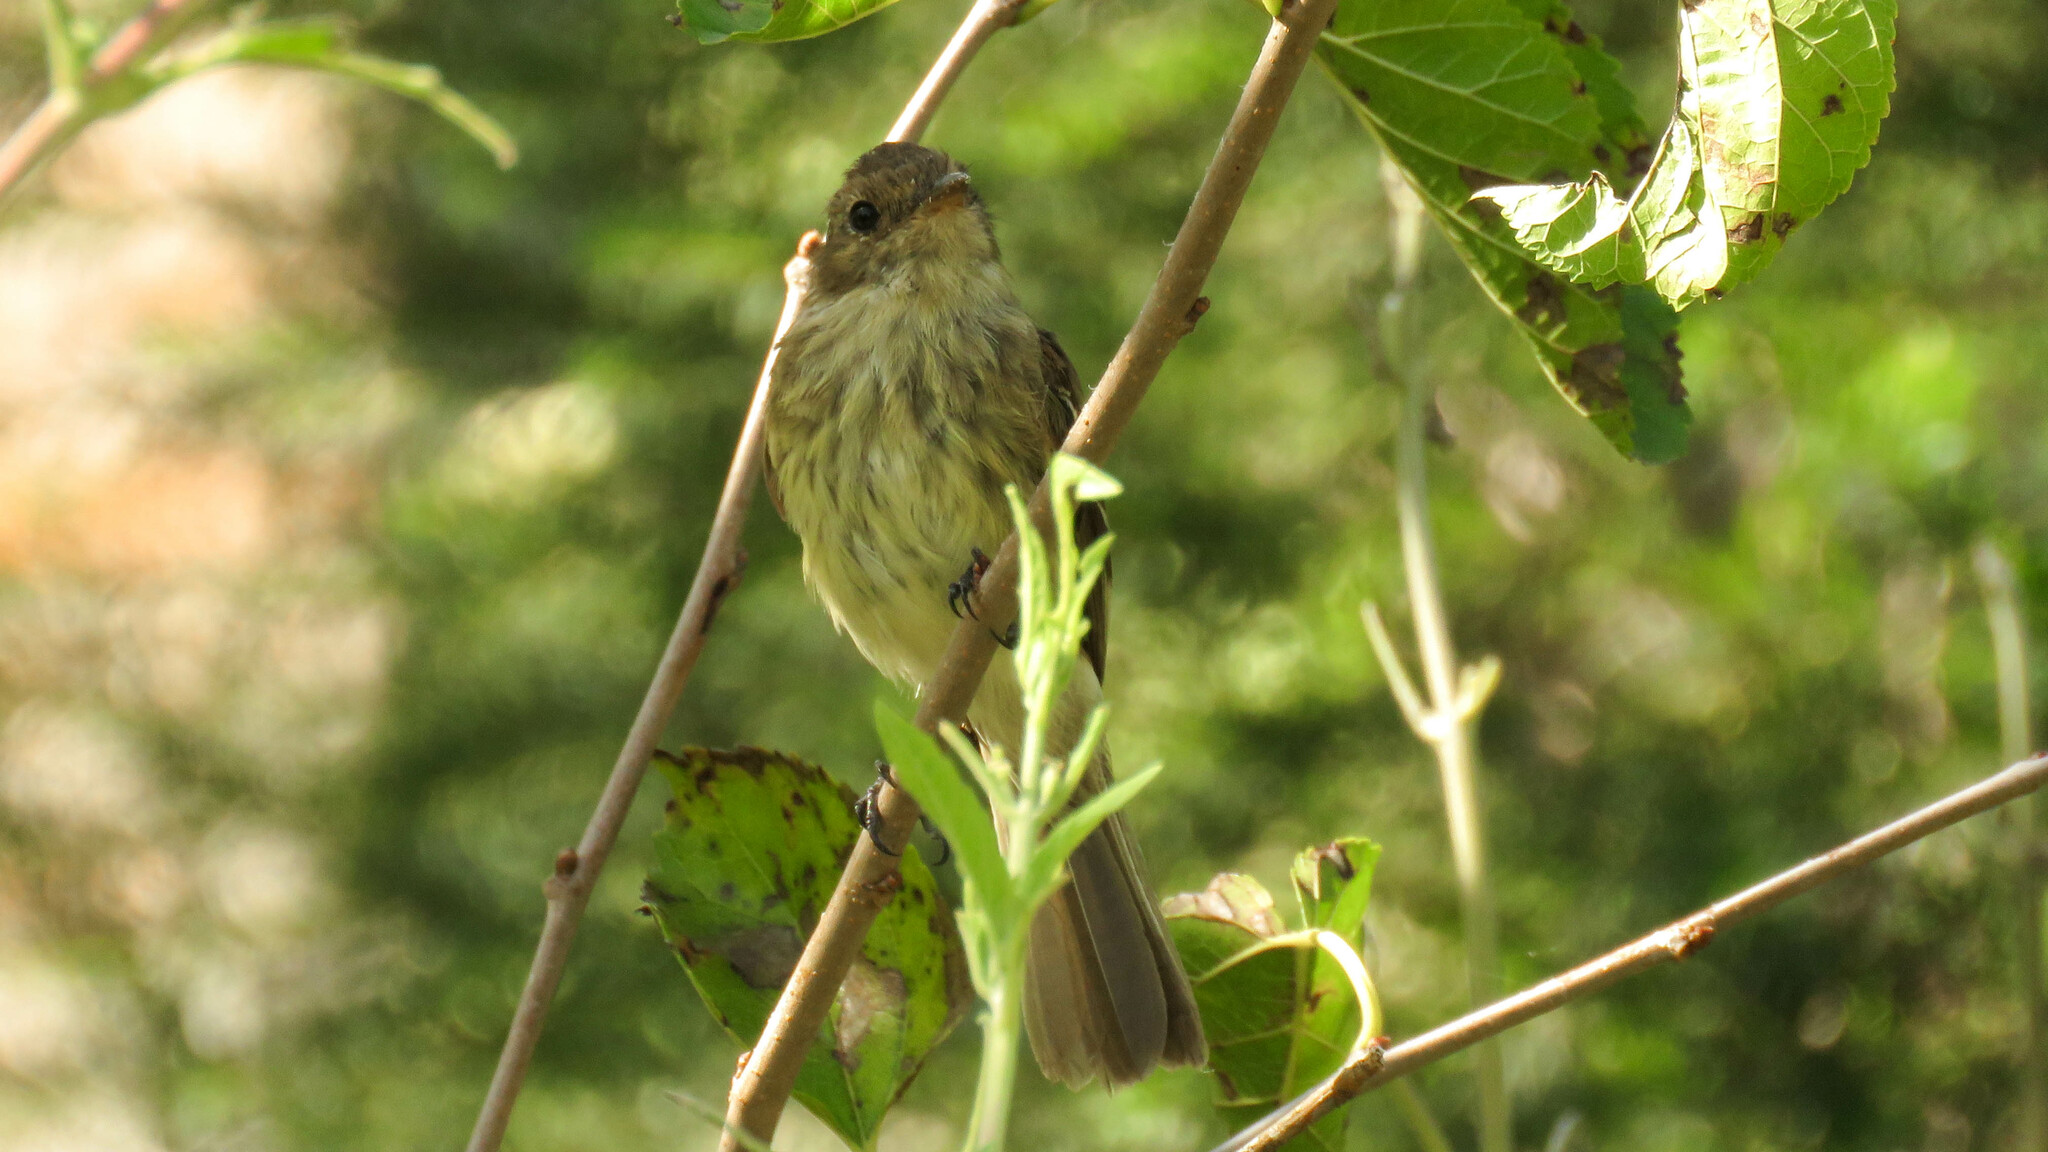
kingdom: Animalia
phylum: Chordata
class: Aves
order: Passeriformes
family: Tyrannidae
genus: Myiophobus
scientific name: Myiophobus fasciatus
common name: Bran-colored flycatcher
